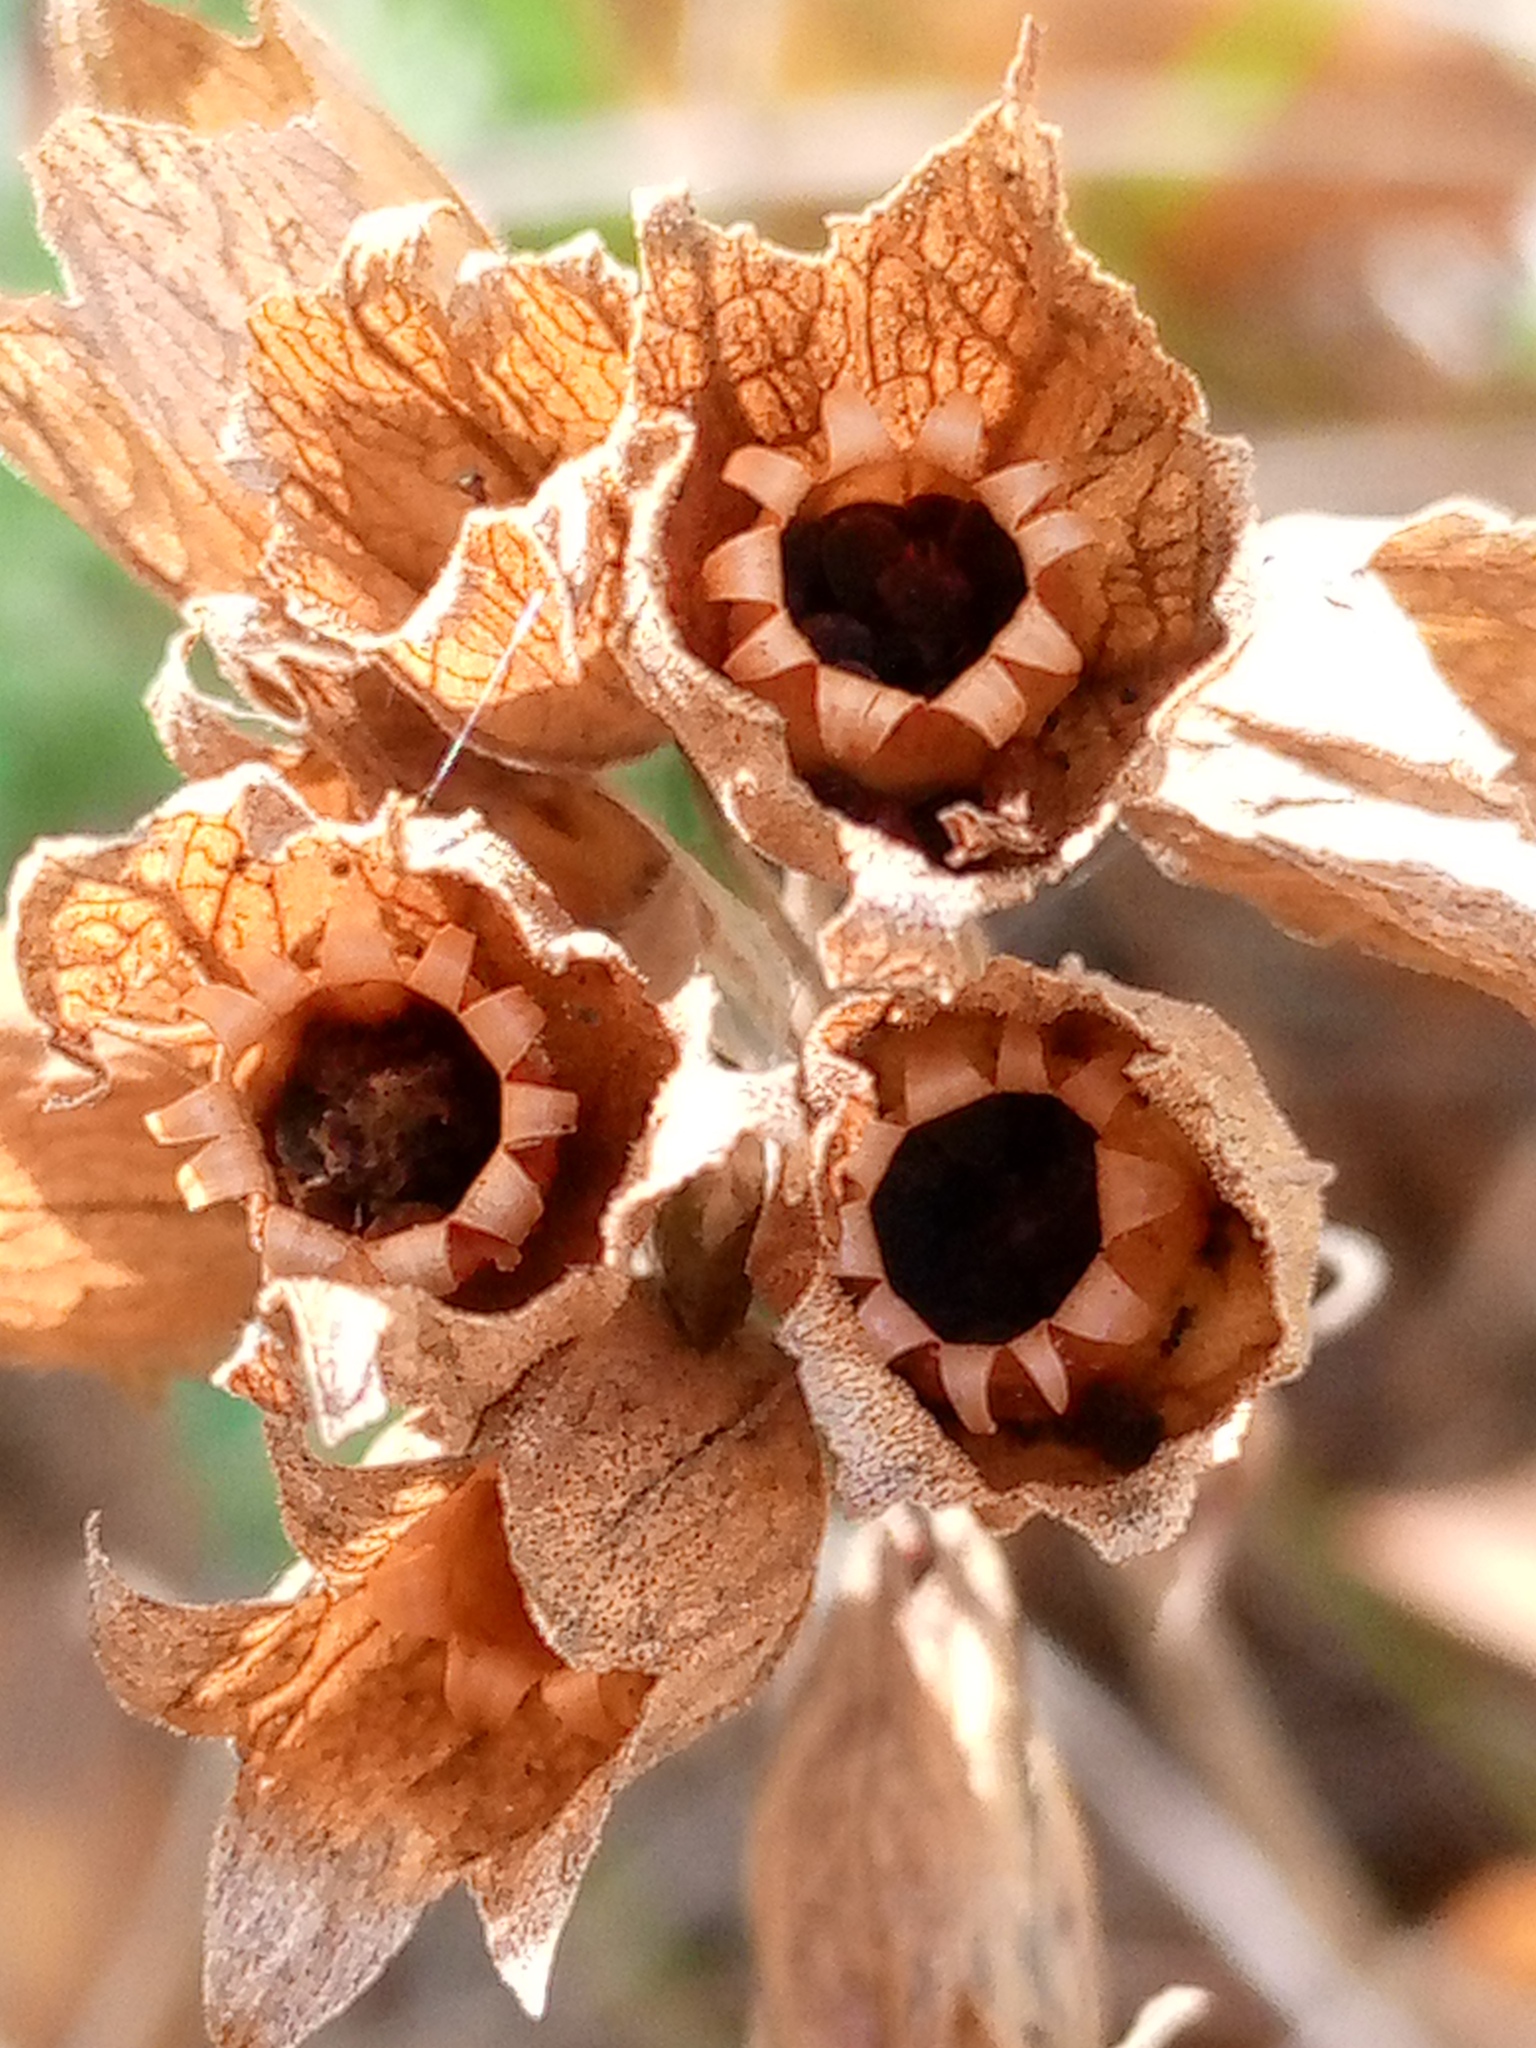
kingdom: Plantae
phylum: Tracheophyta
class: Magnoliopsida
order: Ericales
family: Primulaceae
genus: Primula
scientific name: Primula veris
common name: Cowslip
